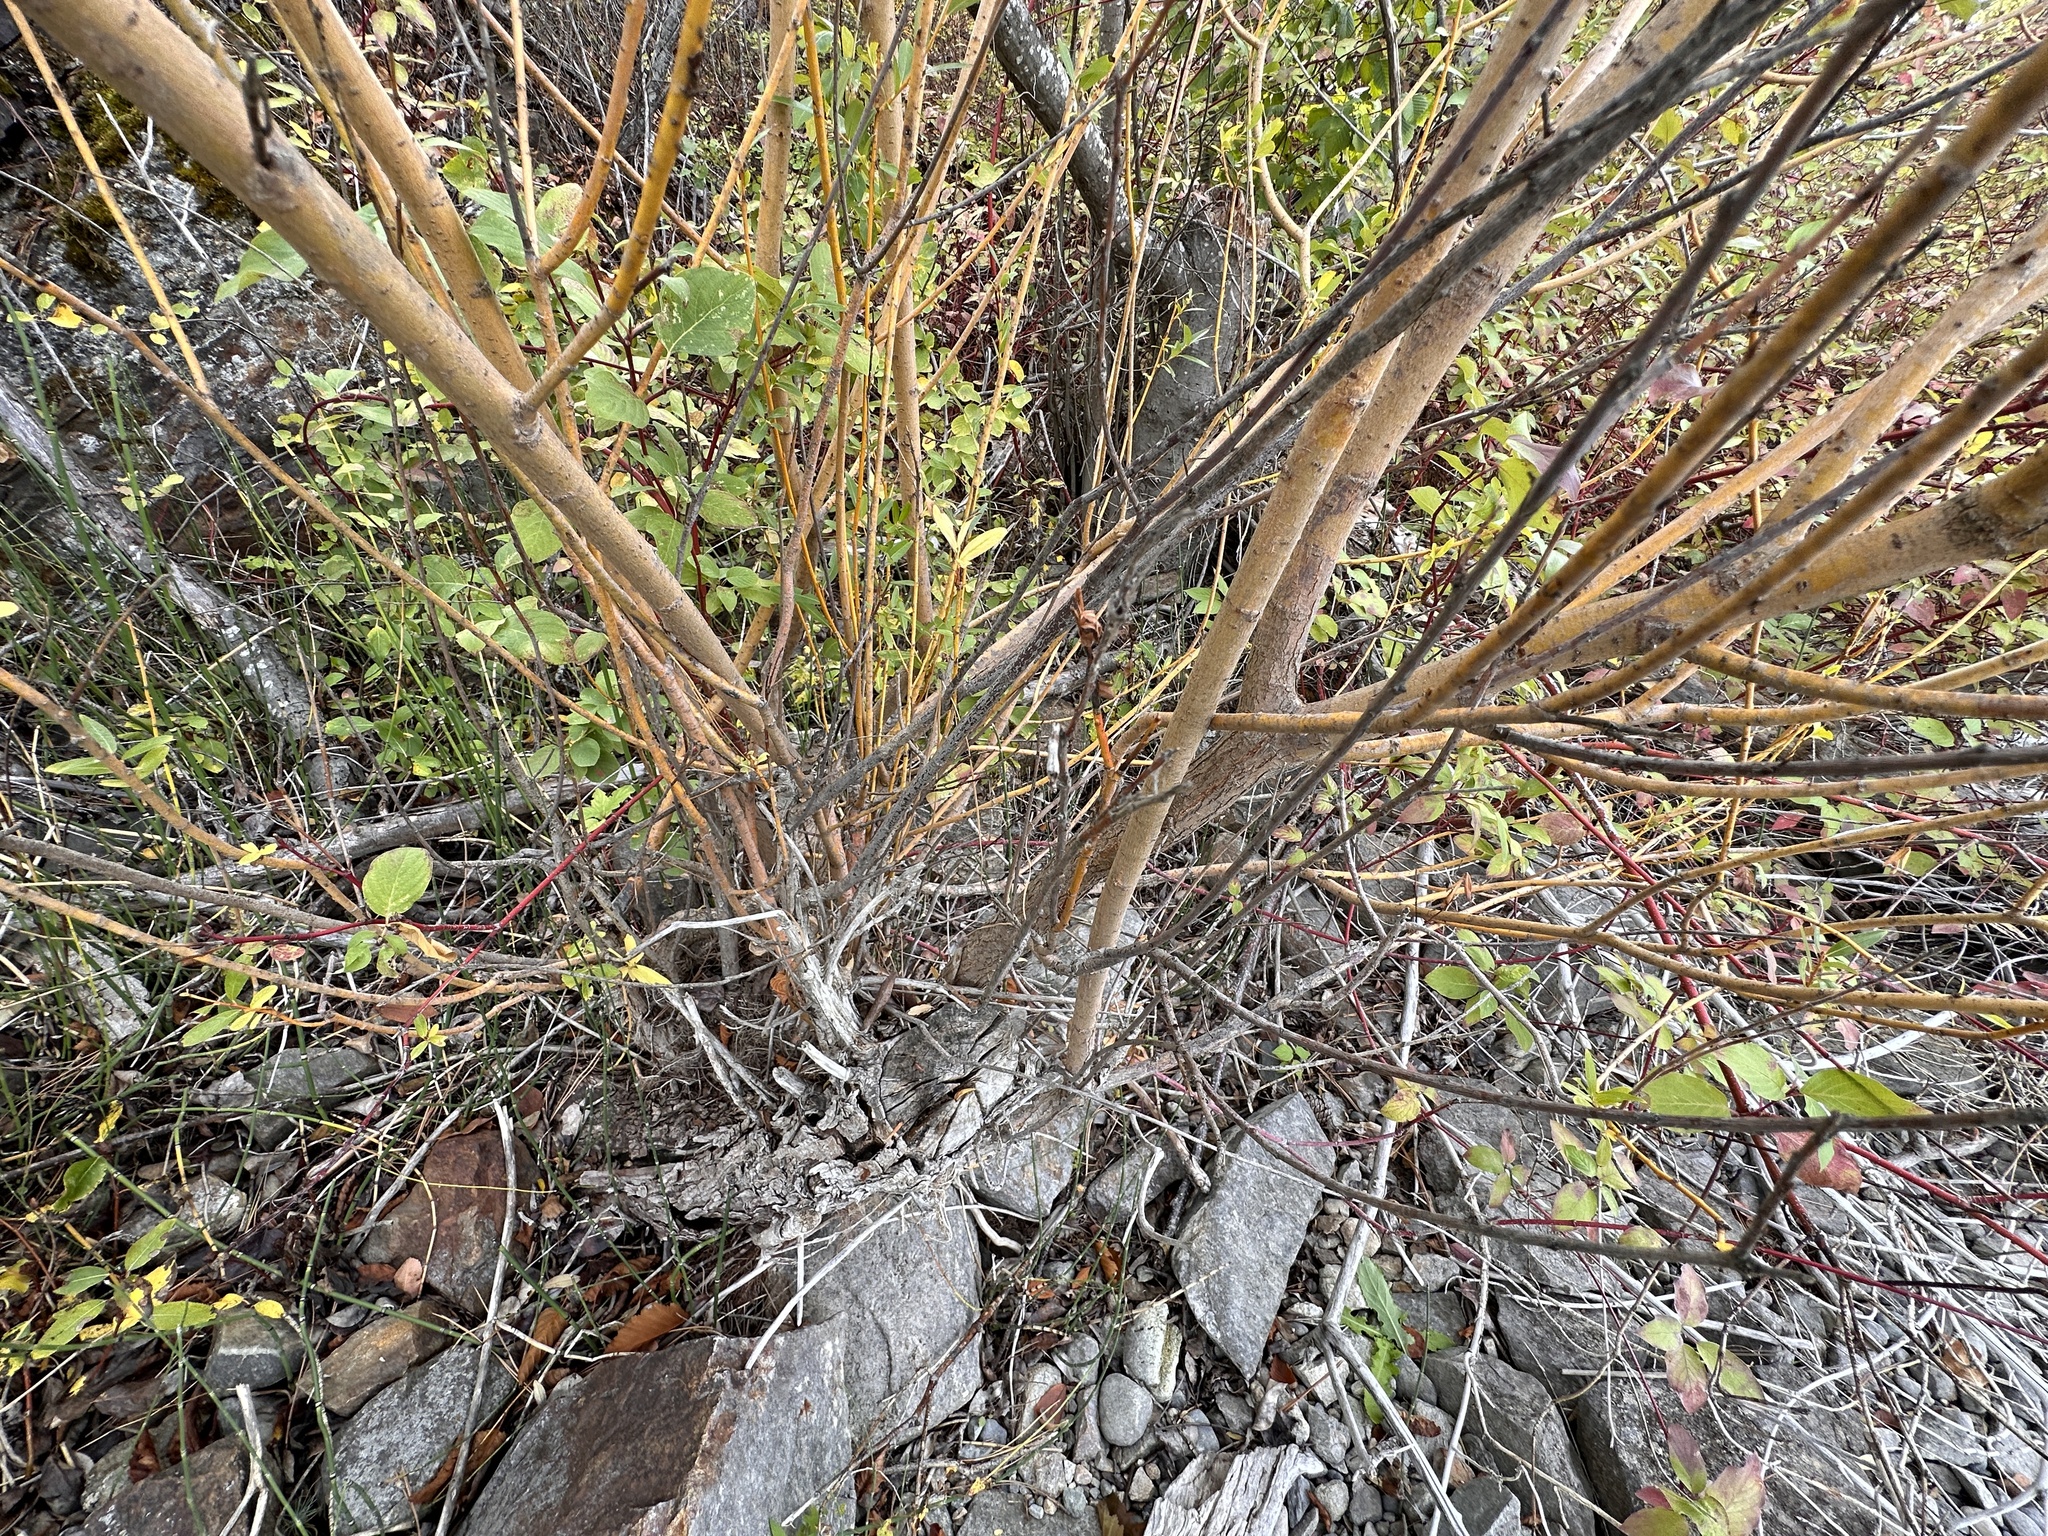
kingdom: Plantae
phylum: Tracheophyta
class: Magnoliopsida
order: Malpighiales
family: Salicaceae
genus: Salix
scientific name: Salix lucida
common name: Shining willow
